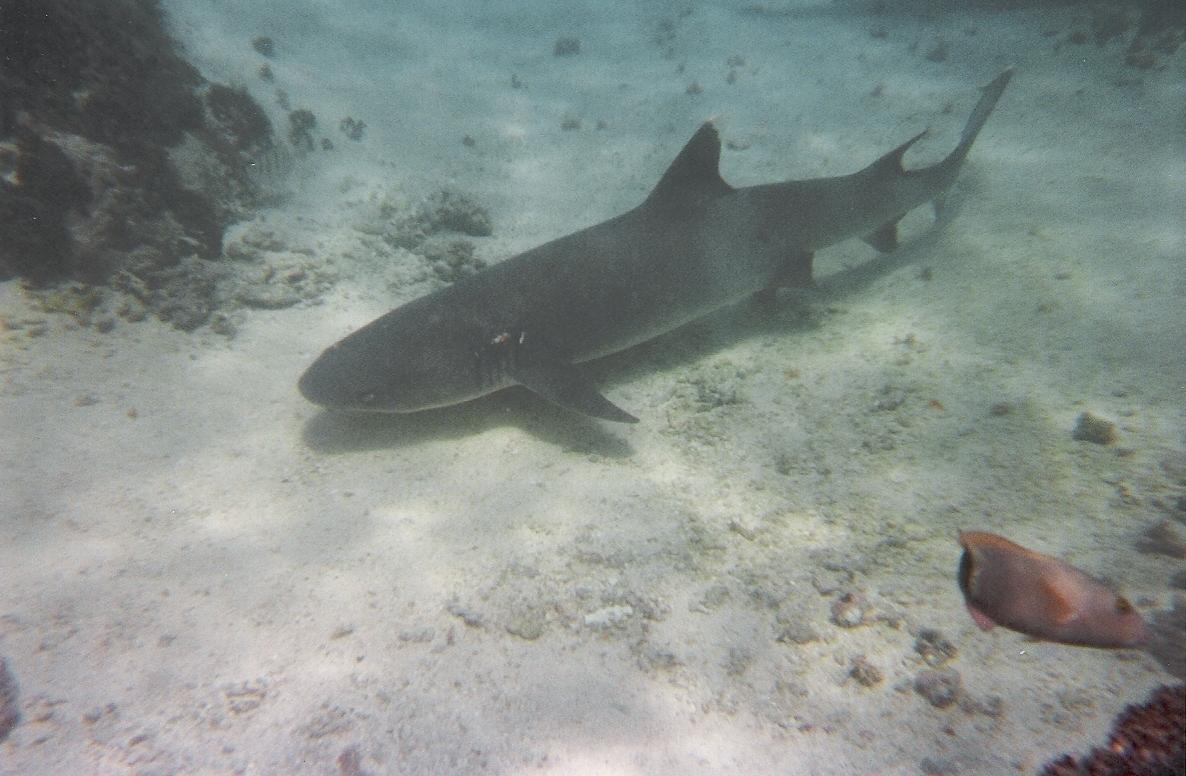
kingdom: Animalia
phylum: Chordata
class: Elasmobranchii
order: Carcharhiniformes
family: Carcharhinidae
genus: Triaenodon
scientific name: Triaenodon obesus
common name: Whitetip reef shark
